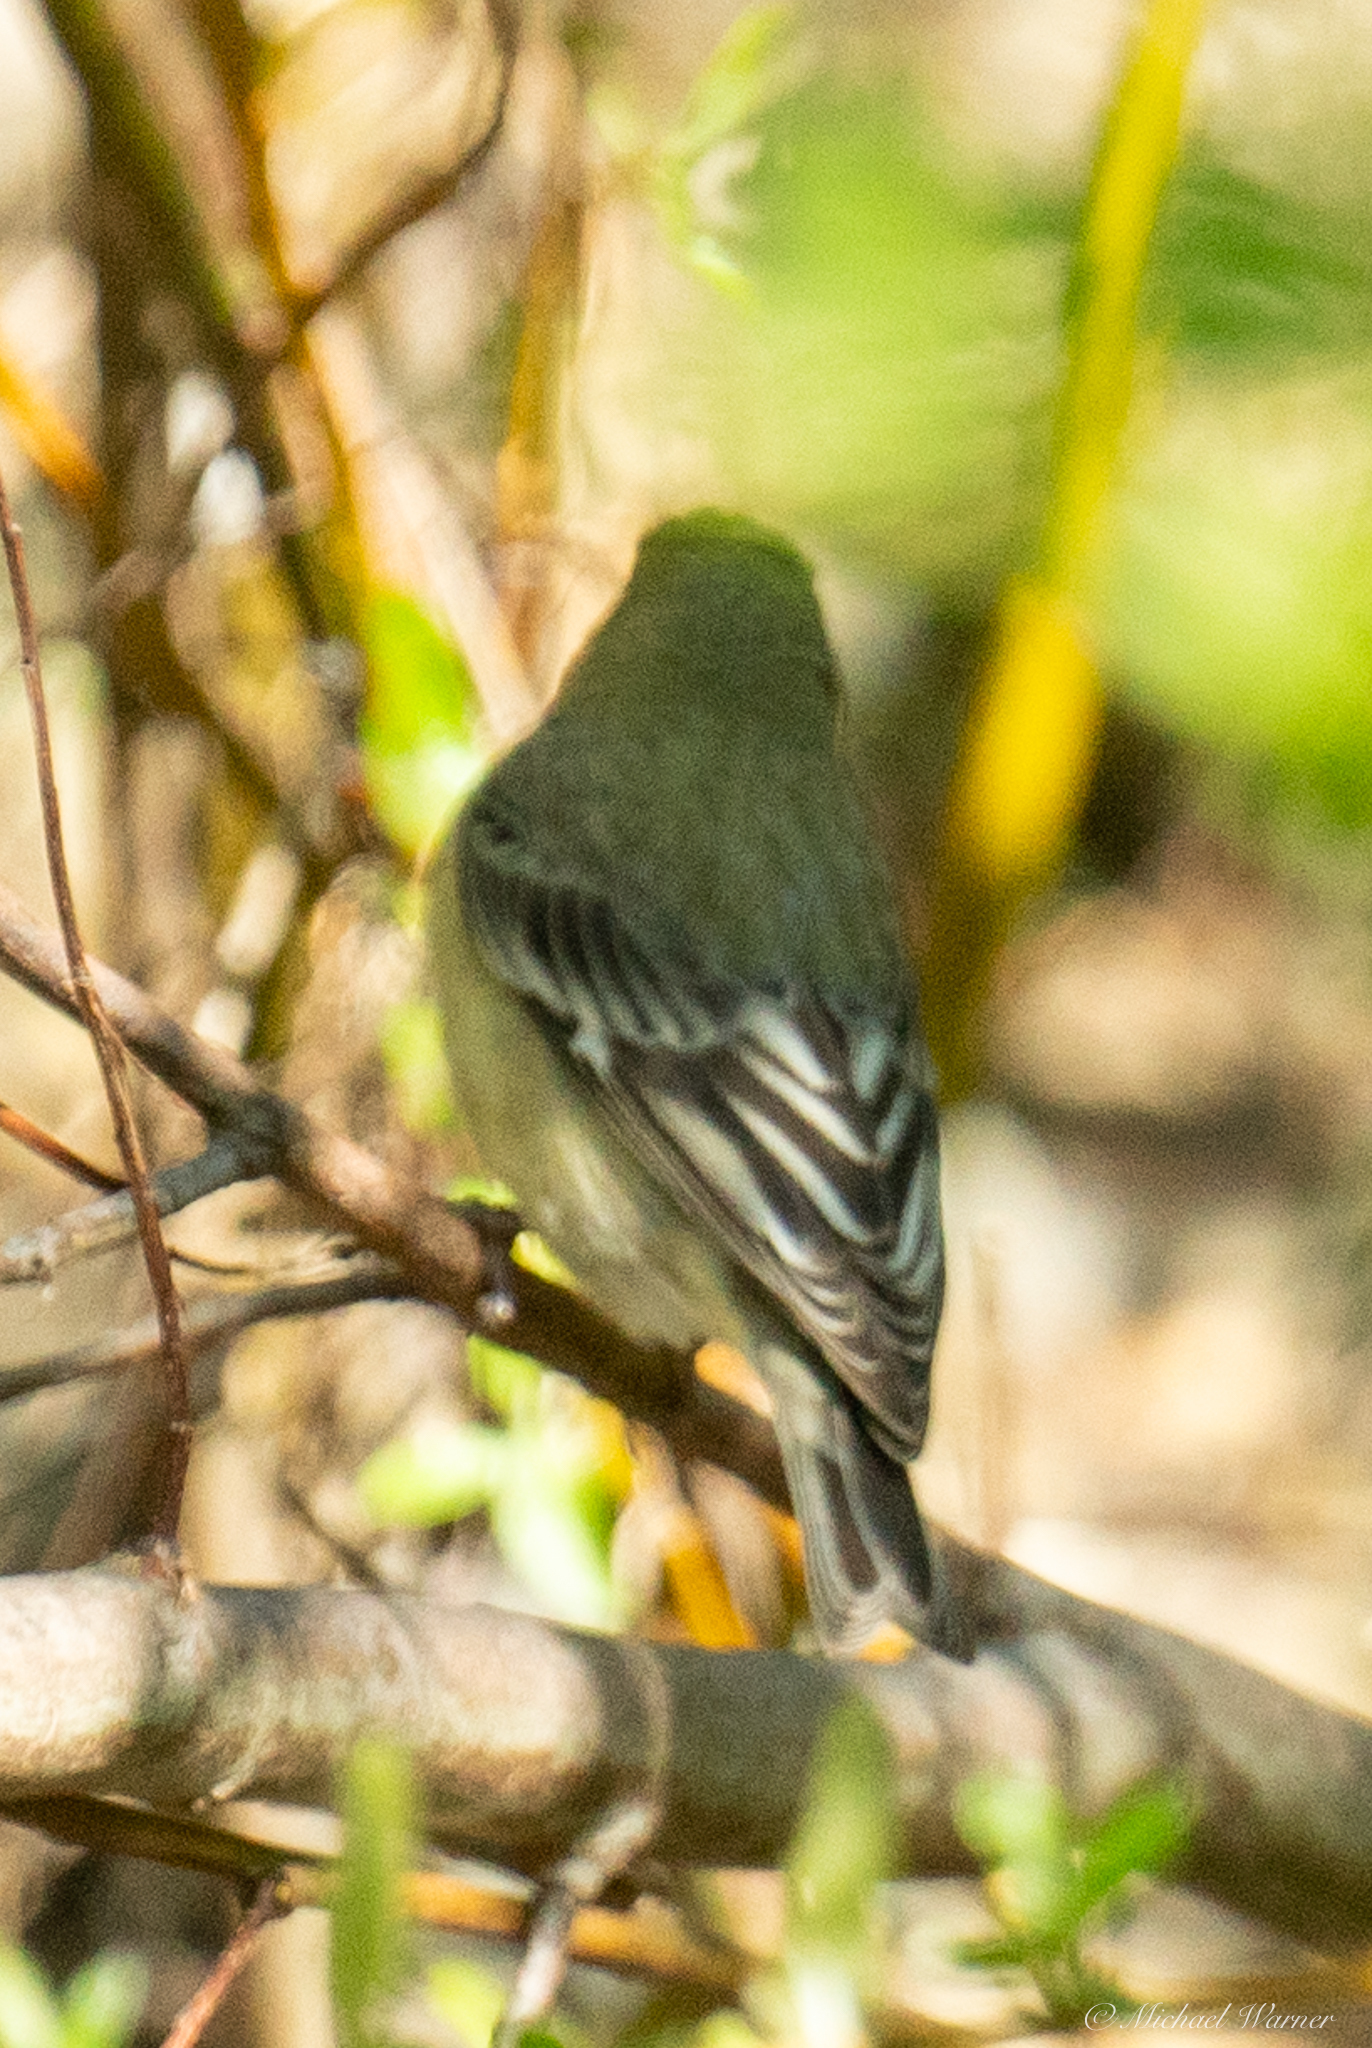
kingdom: Animalia
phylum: Chordata
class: Aves
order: Passeriformes
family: Fringillidae
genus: Spinus
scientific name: Spinus psaltria
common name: Lesser goldfinch
